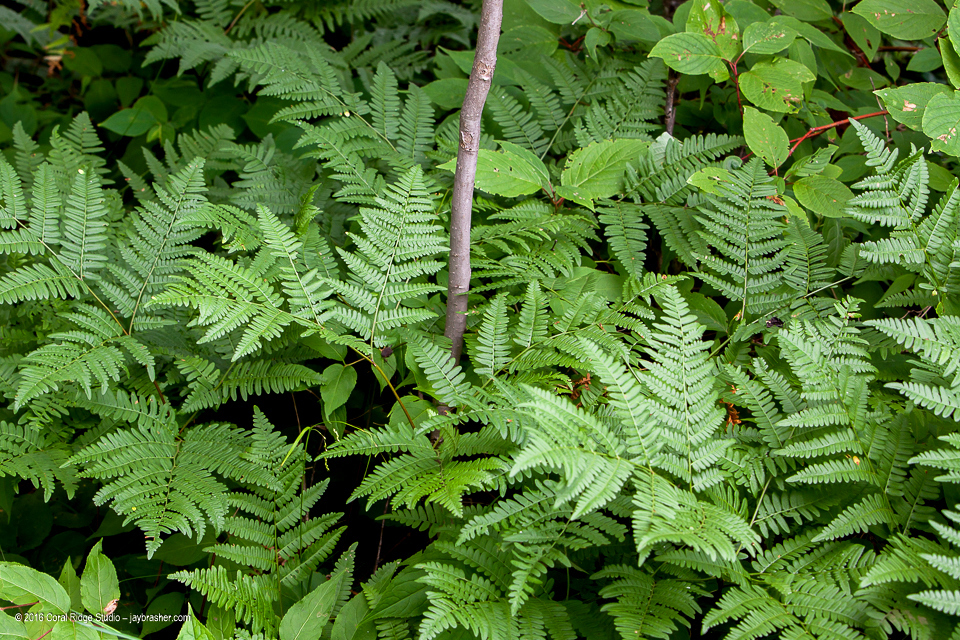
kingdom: Plantae
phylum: Tracheophyta
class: Polypodiopsida
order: Polypodiales
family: Dennstaedtiaceae
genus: Pteridium
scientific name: Pteridium aquilinum
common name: Bracken
